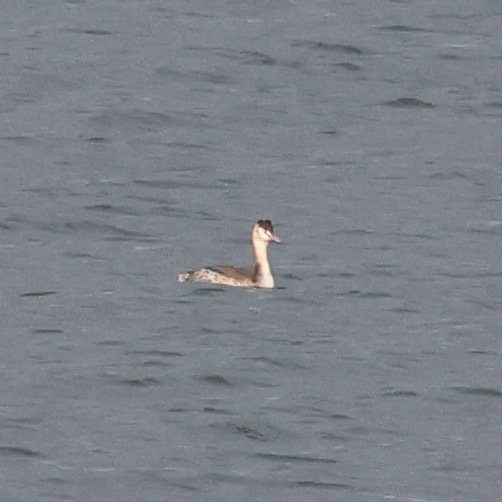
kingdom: Animalia
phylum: Chordata
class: Aves
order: Podicipediformes
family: Podicipedidae
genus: Podiceps
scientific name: Podiceps cristatus
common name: Great crested grebe
